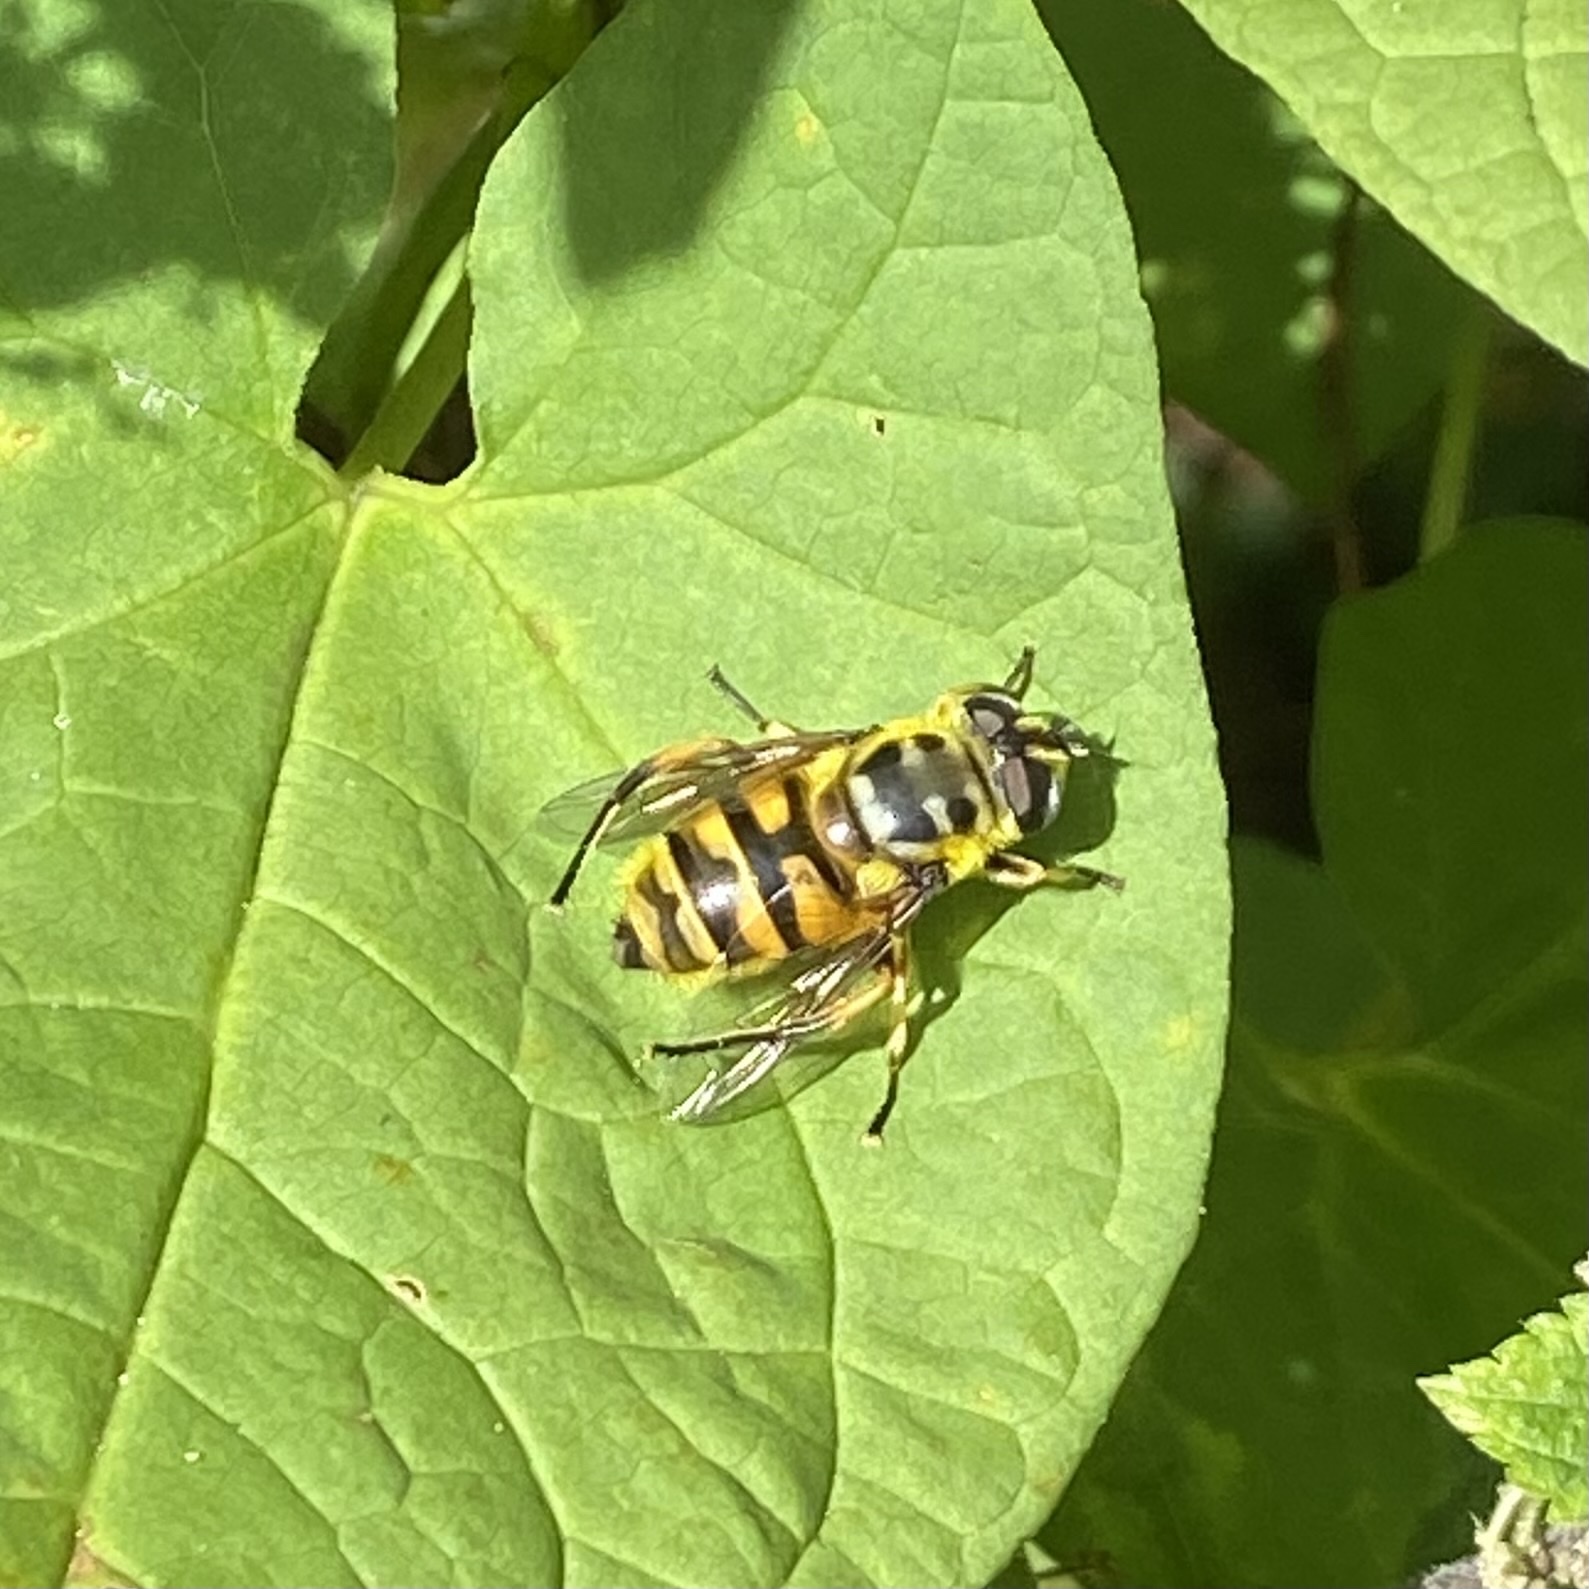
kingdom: Animalia
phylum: Arthropoda
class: Insecta
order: Diptera
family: Syrphidae
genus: Myathropa
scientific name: Myathropa florea
